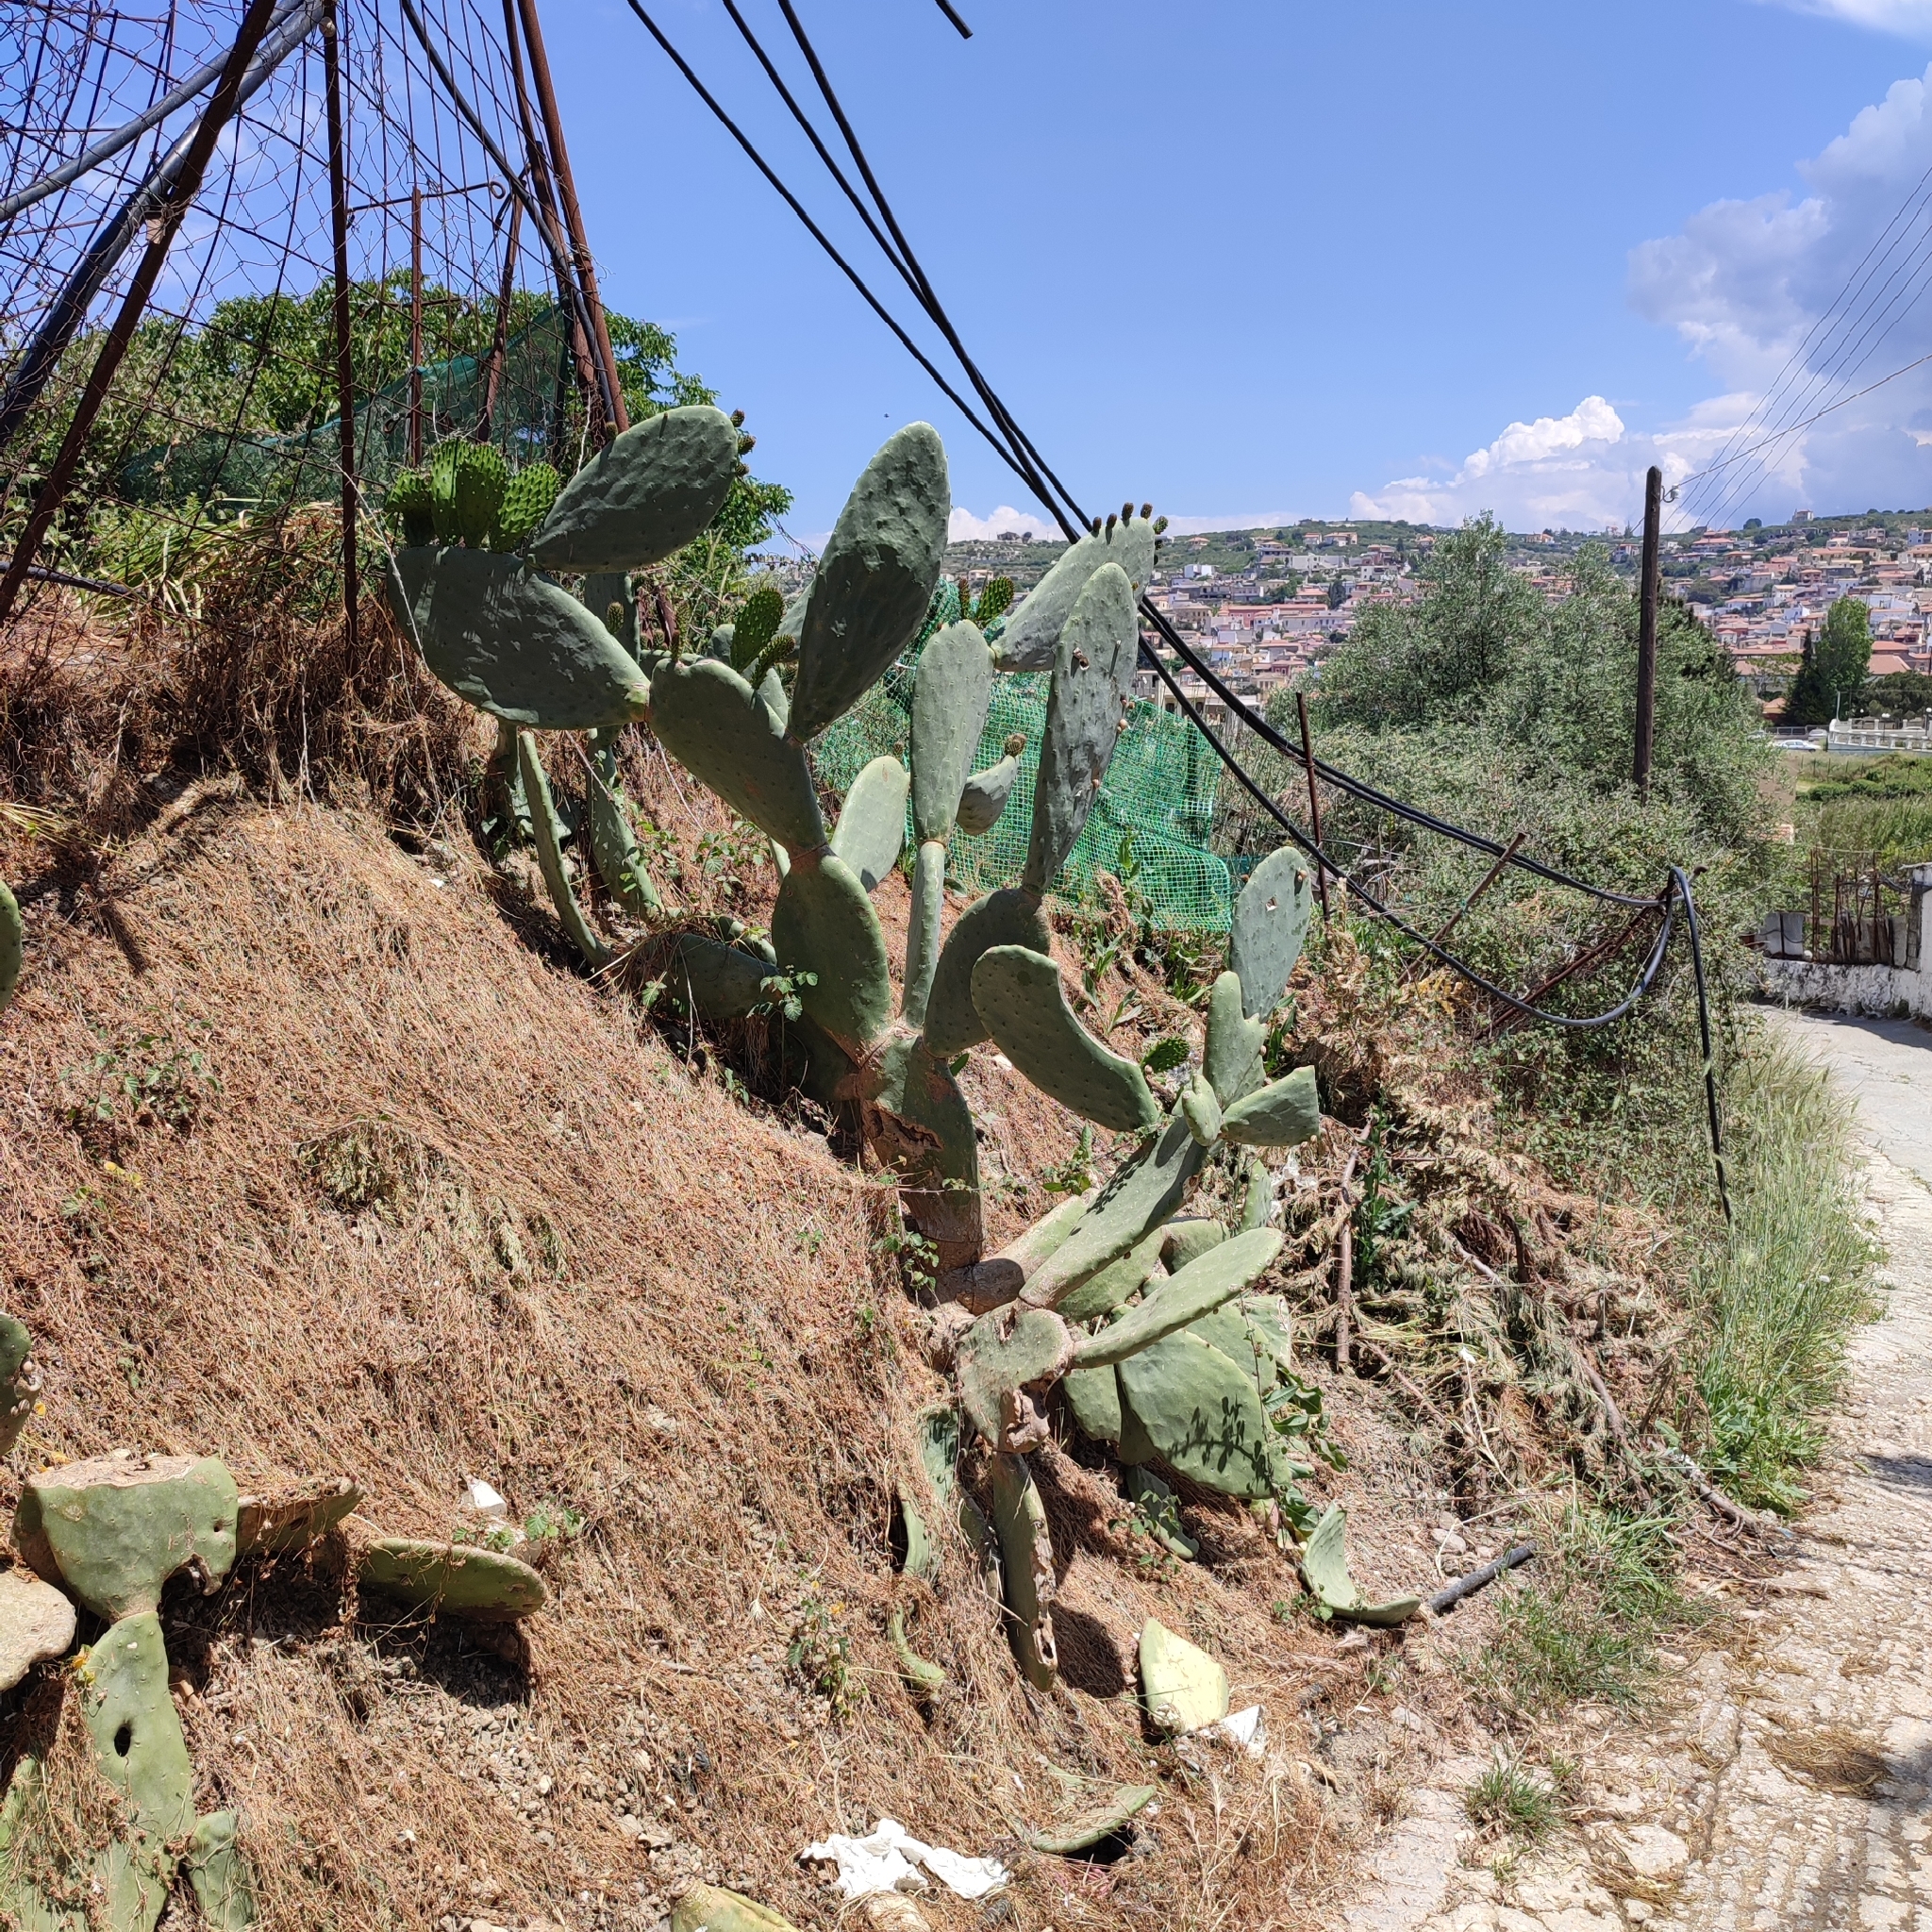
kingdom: Plantae
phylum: Tracheophyta
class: Magnoliopsida
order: Caryophyllales
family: Cactaceae
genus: Opuntia
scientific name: Opuntia ficus-indica
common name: Barbary fig
